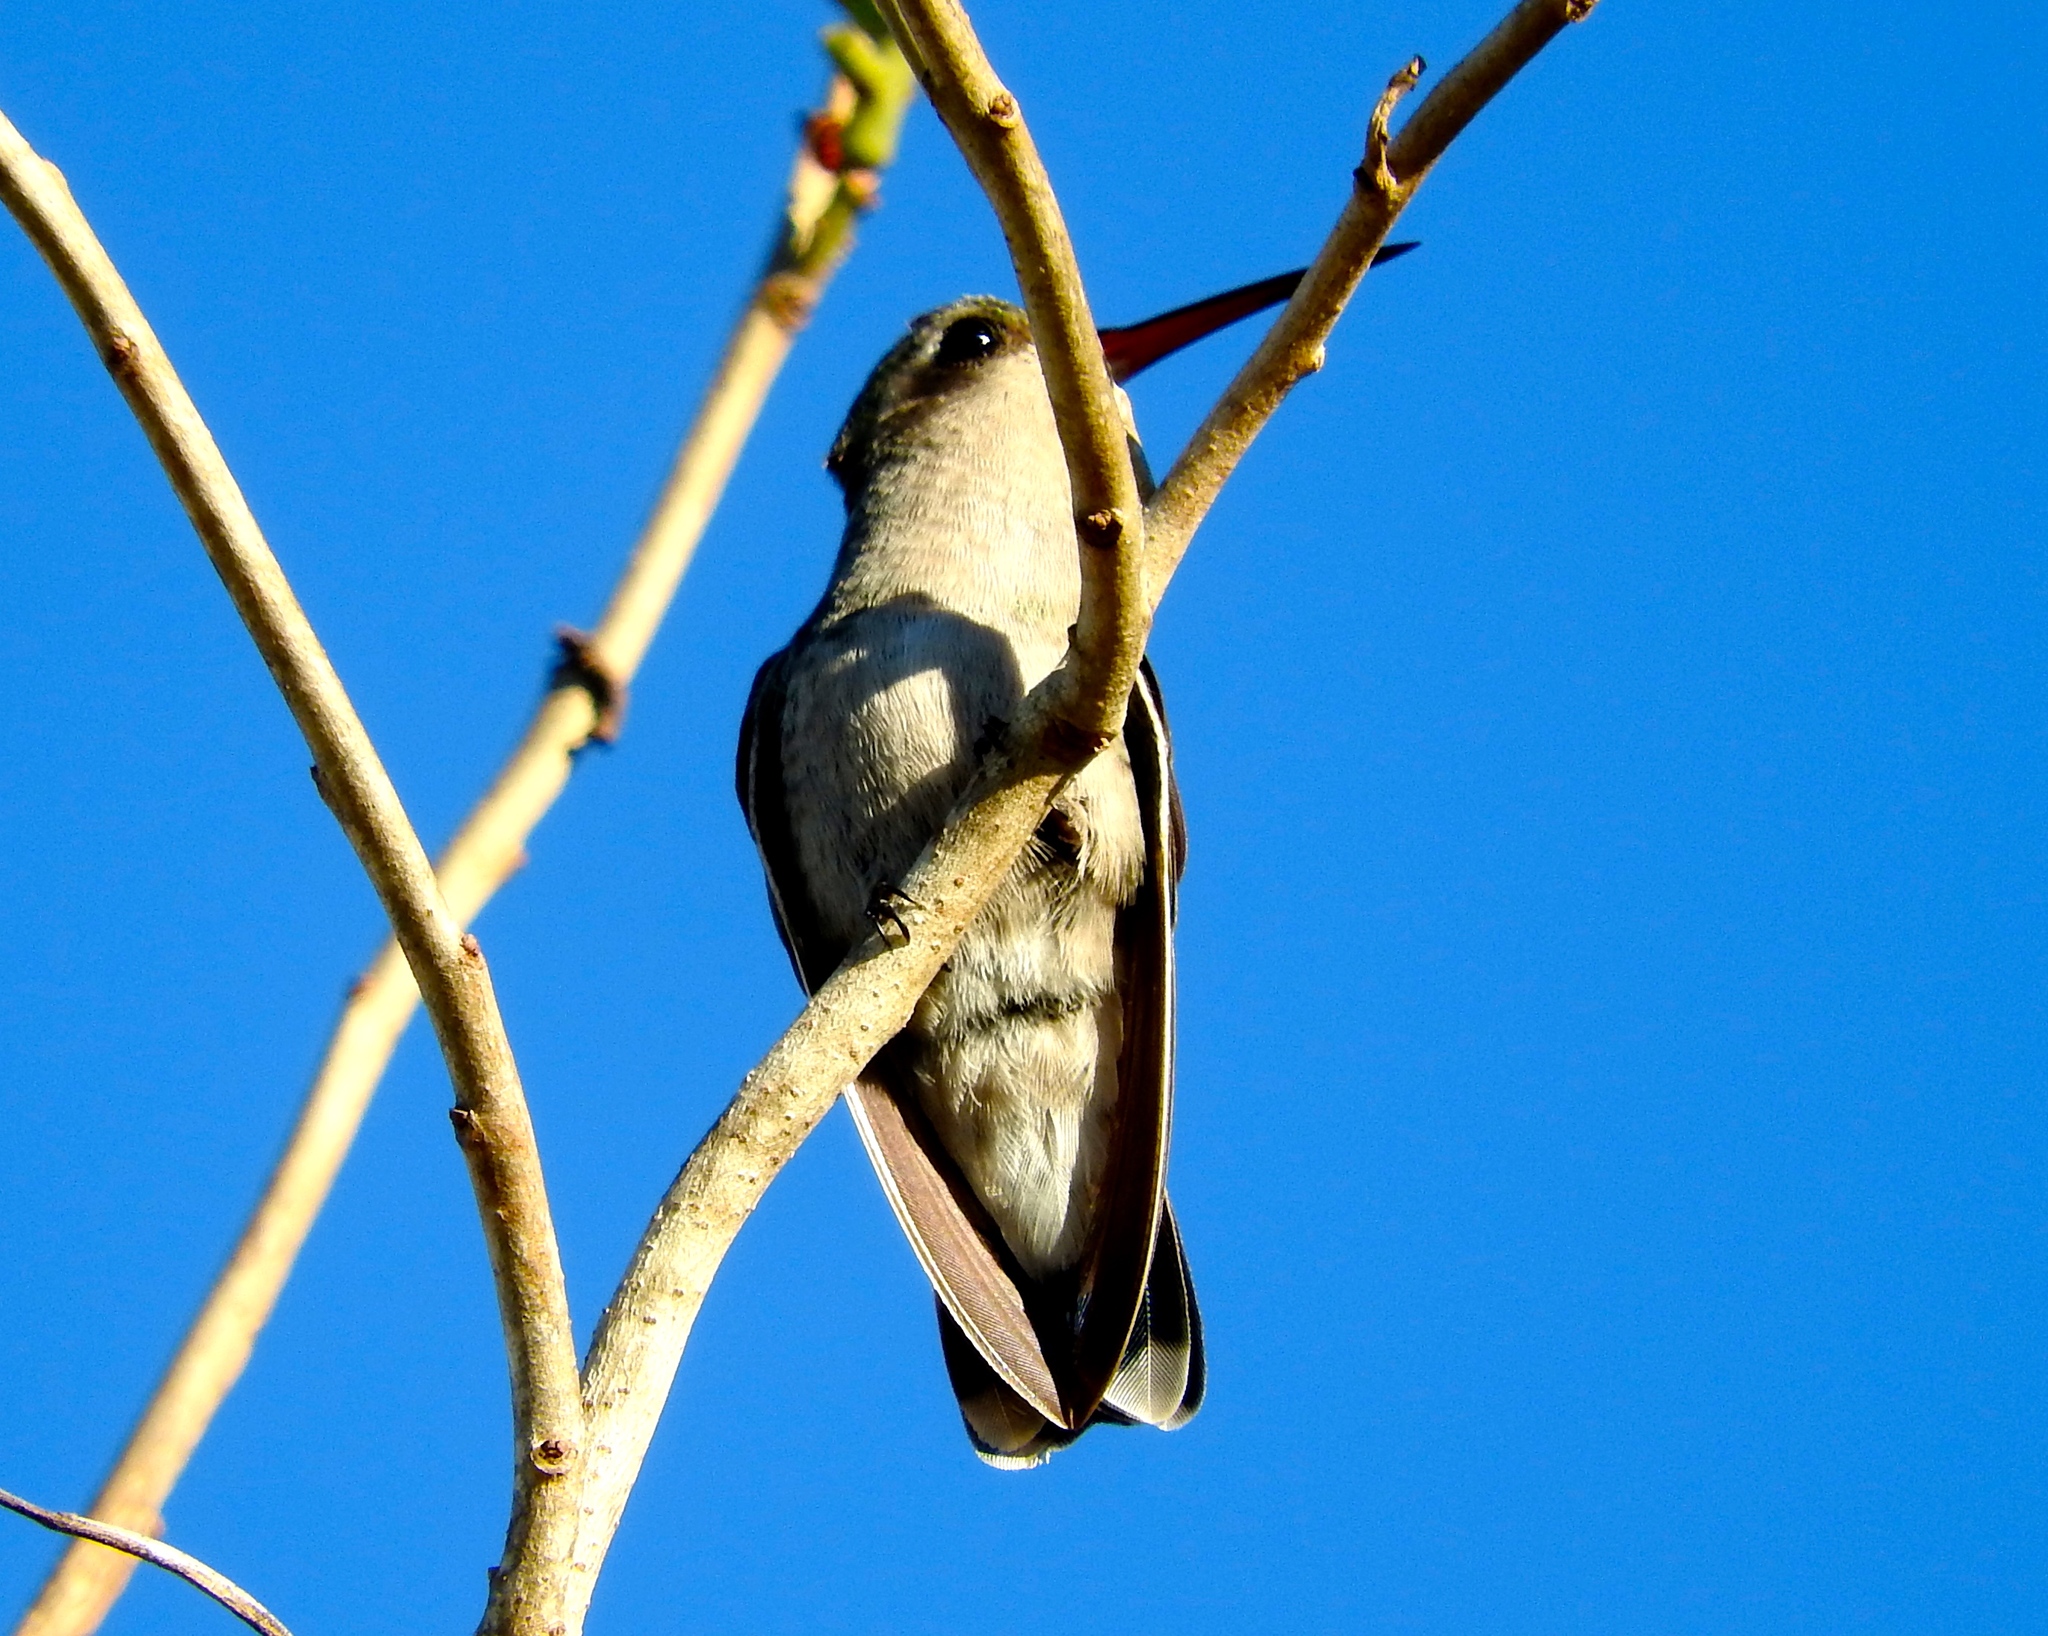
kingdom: Animalia
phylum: Chordata
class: Aves
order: Apodiformes
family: Trochilidae
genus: Cynanthus
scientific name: Cynanthus latirostris
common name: Broad-billed hummingbird
